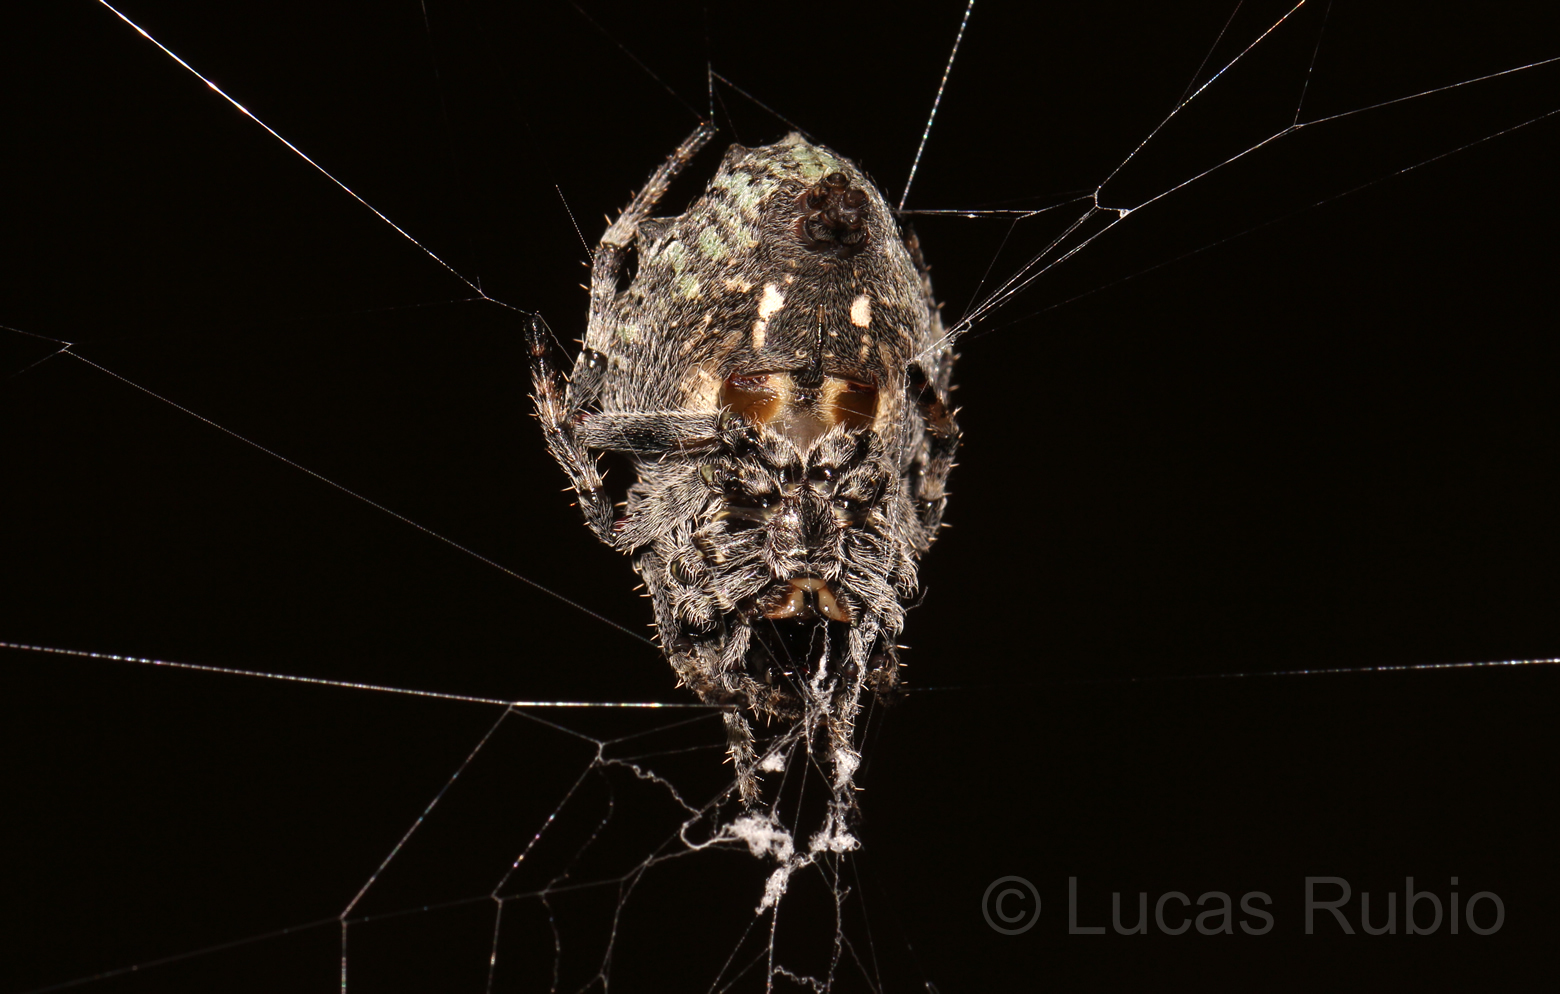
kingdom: Animalia
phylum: Arthropoda
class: Arachnida
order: Araneae
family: Araneidae
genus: Parawixia
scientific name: Parawixia audax
